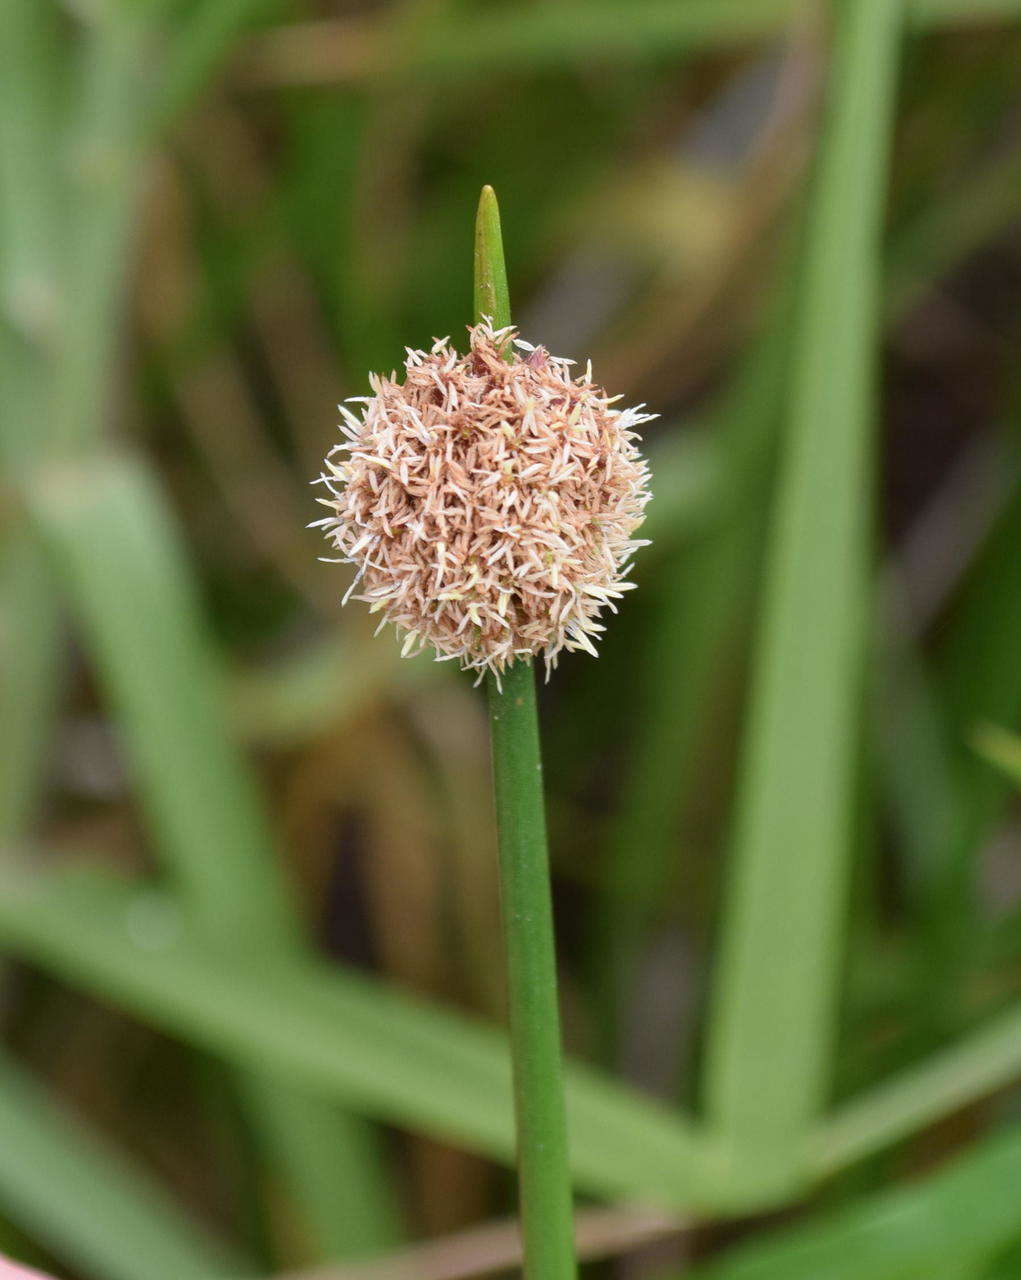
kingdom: Plantae
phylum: Tracheophyta
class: Liliopsida
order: Poales
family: Cyperaceae
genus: Ficinia
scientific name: Ficinia nodosa
